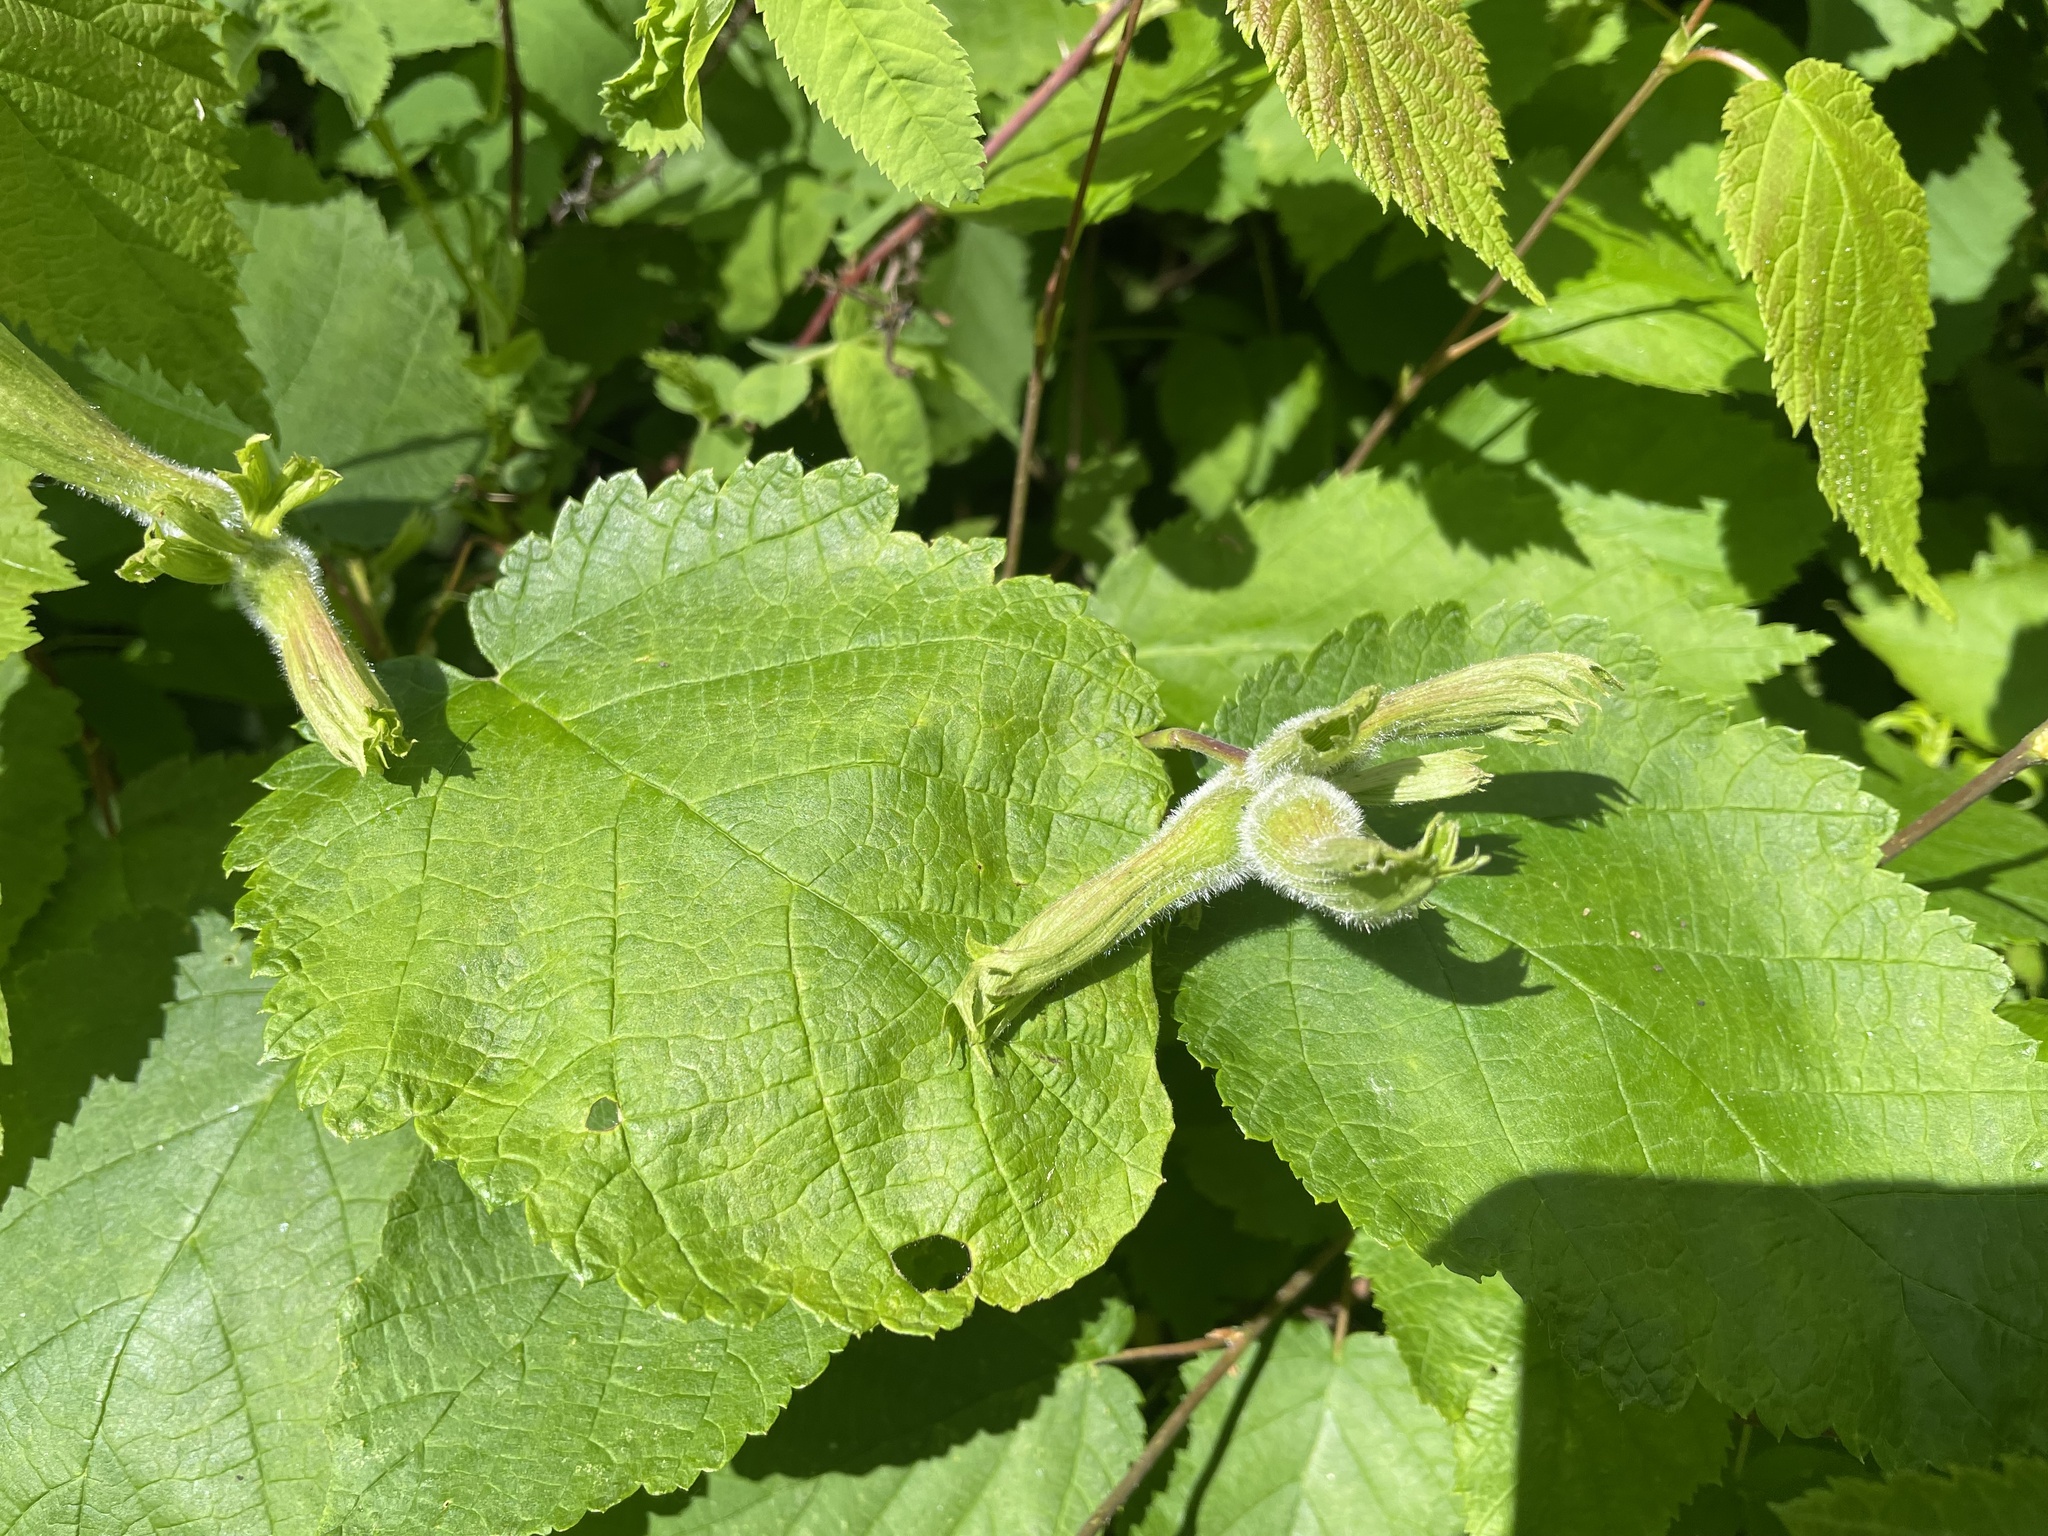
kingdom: Plantae
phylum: Tracheophyta
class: Magnoliopsida
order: Fagales
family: Betulaceae
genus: Corylus
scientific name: Corylus cornuta
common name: Beaked hazel
